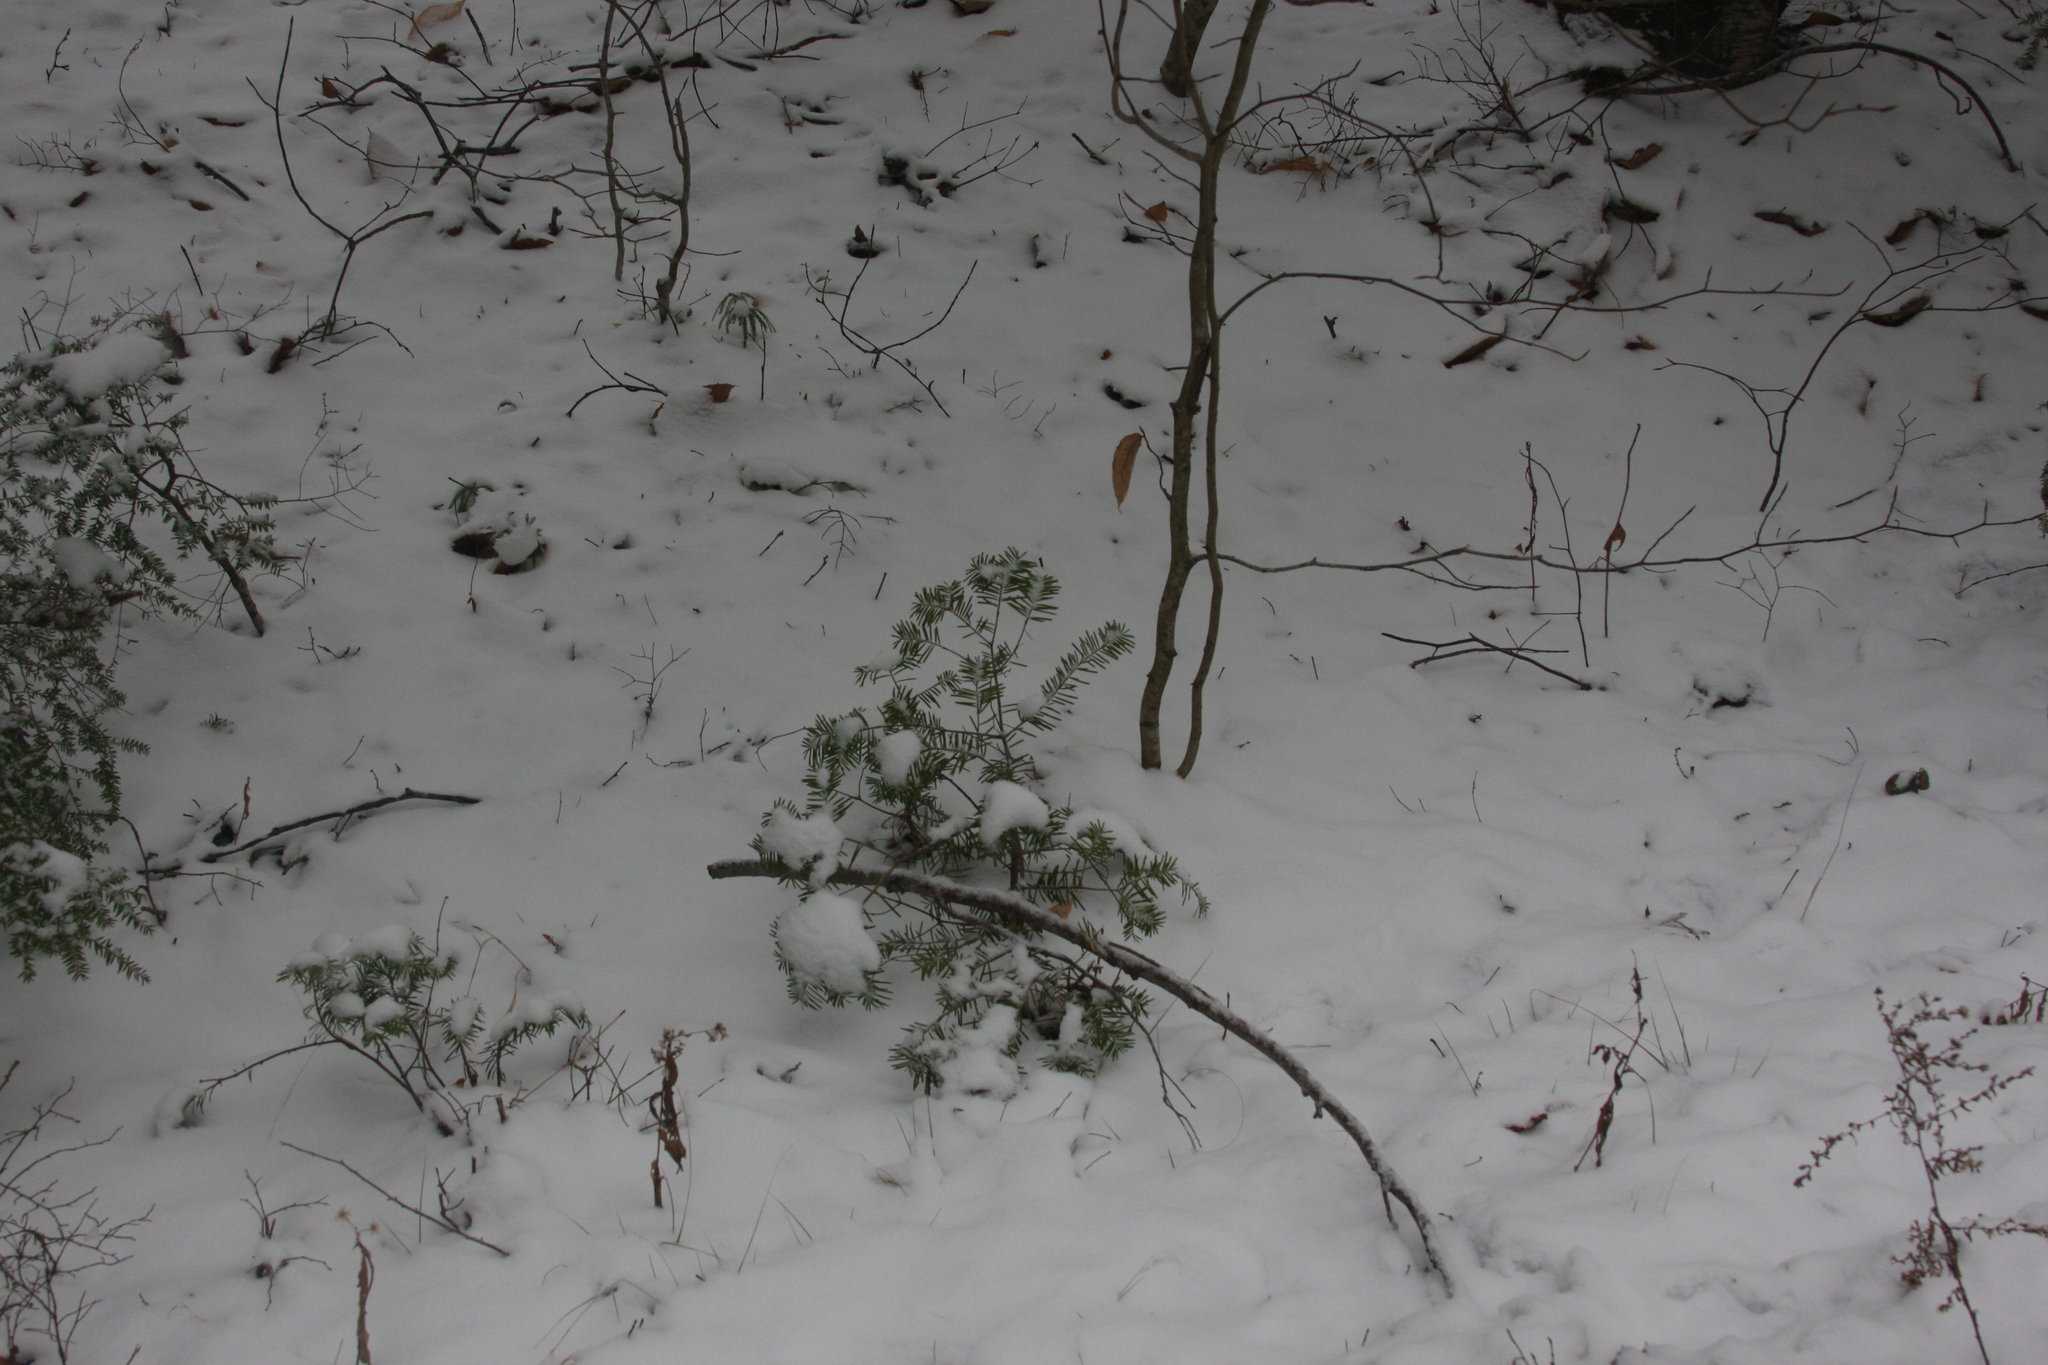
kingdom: Plantae
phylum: Tracheophyta
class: Pinopsida
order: Pinales
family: Pinaceae
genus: Abies
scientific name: Abies balsamea
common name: Balsam fir
